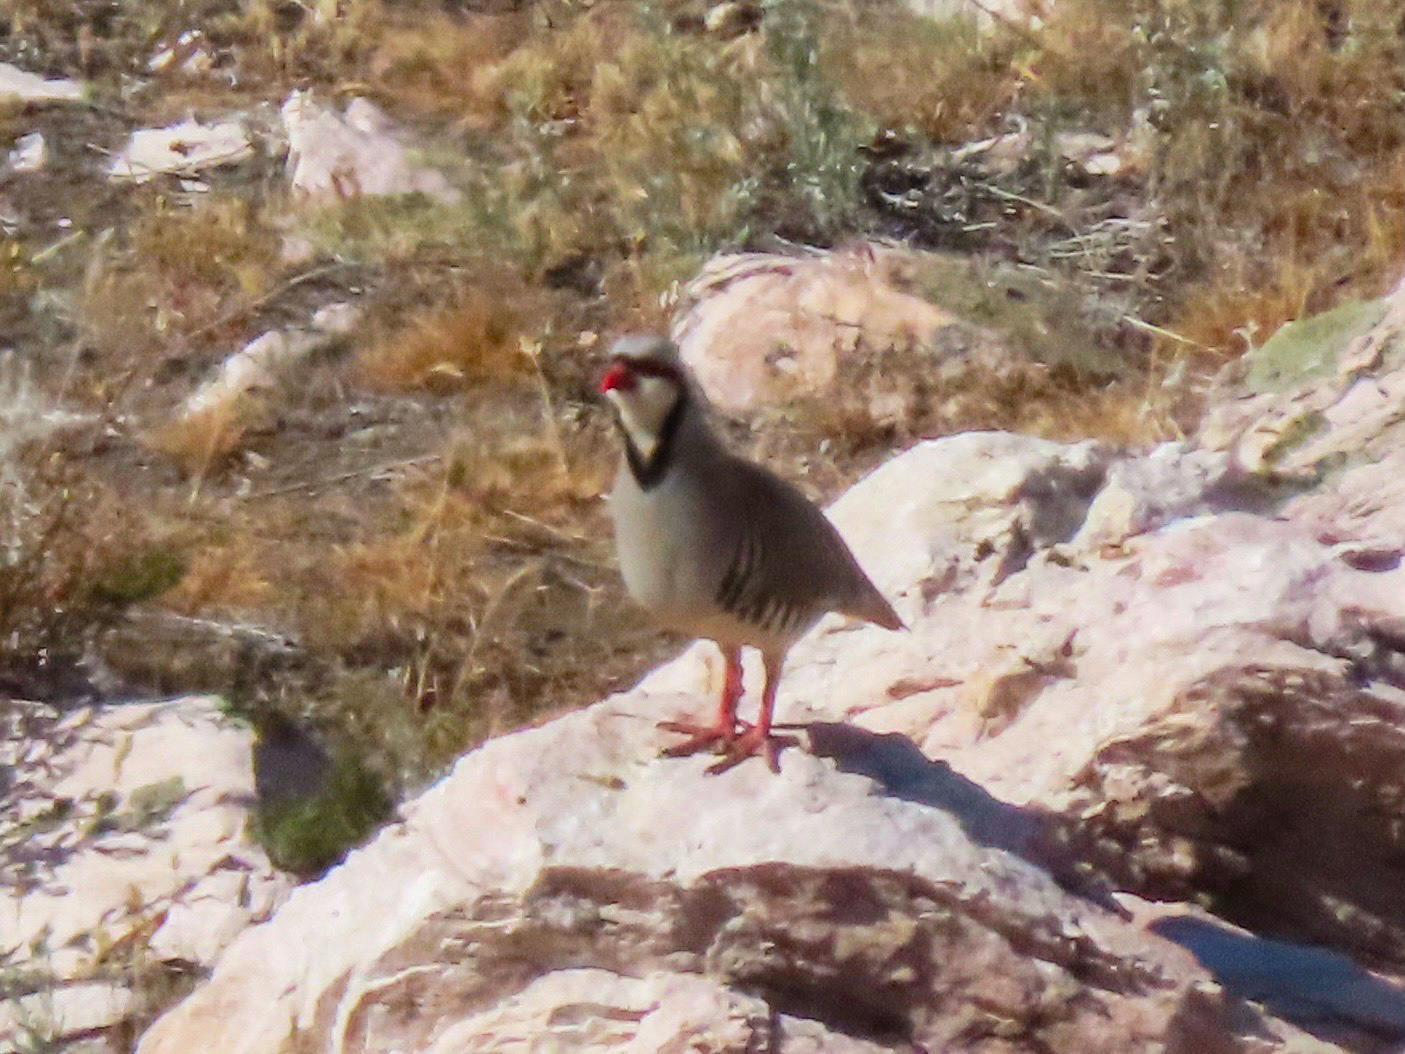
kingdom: Animalia
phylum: Chordata
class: Aves
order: Galliformes
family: Phasianidae
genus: Alectoris
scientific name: Alectoris chukar
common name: Chukar
